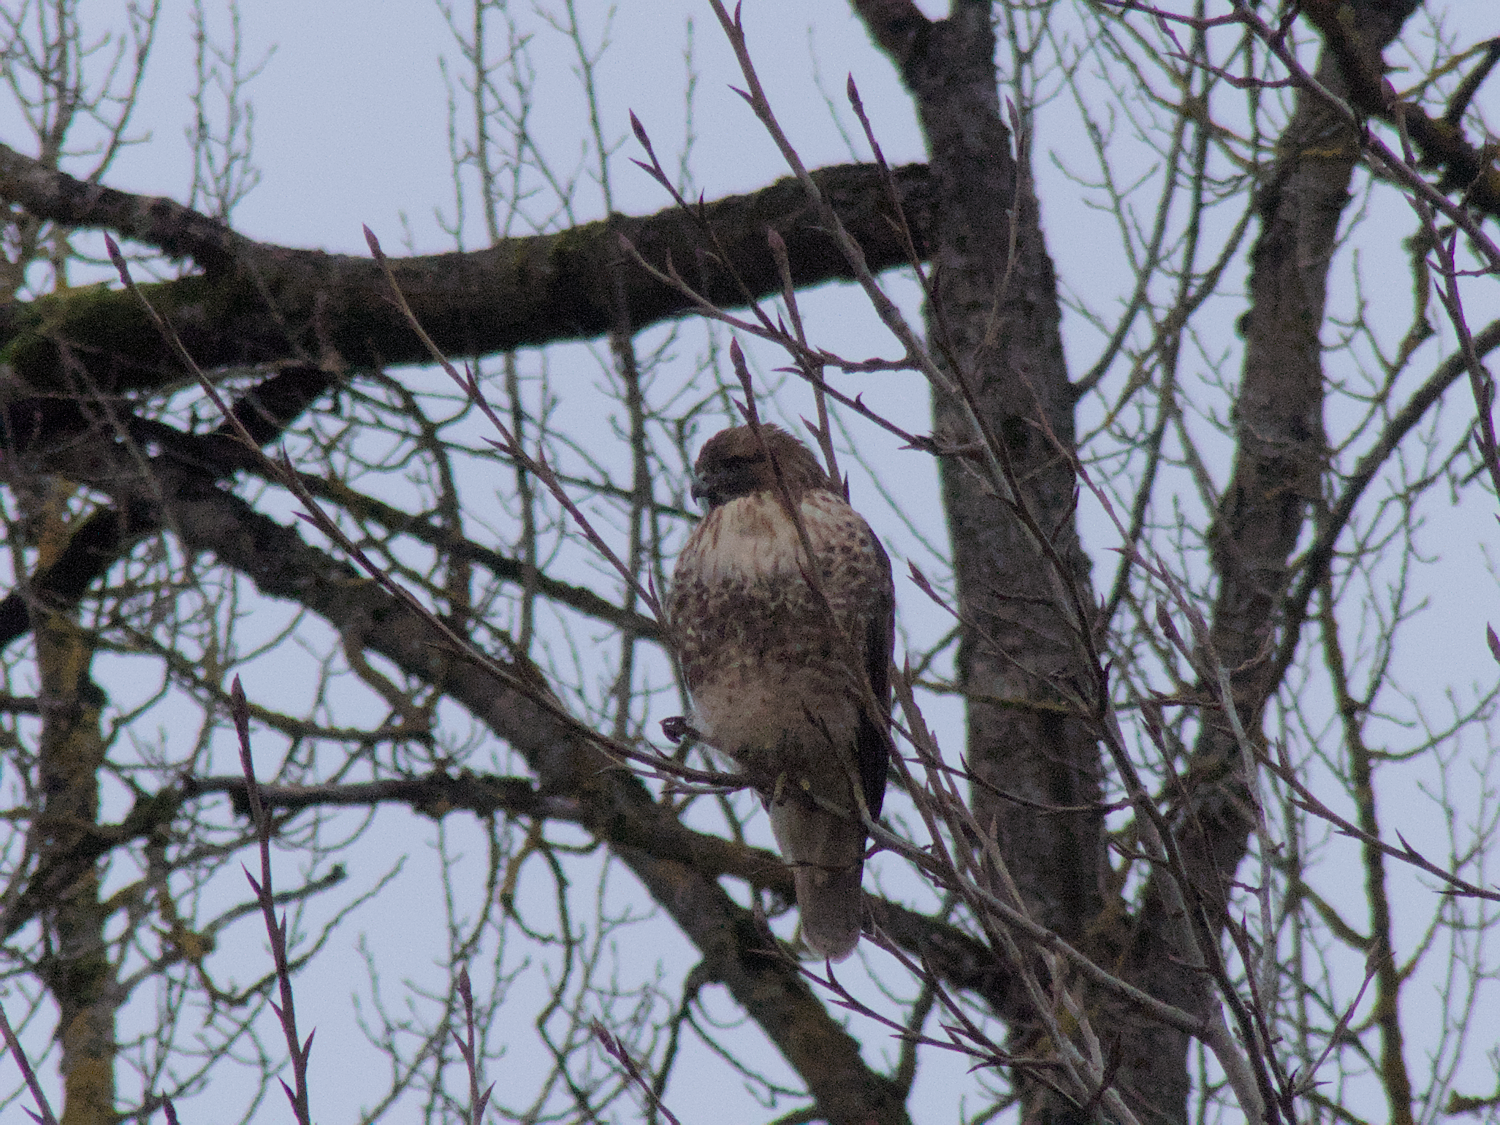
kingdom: Animalia
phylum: Chordata
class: Aves
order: Accipitriformes
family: Accipitridae
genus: Buteo
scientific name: Buteo jamaicensis
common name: Red-tailed hawk
